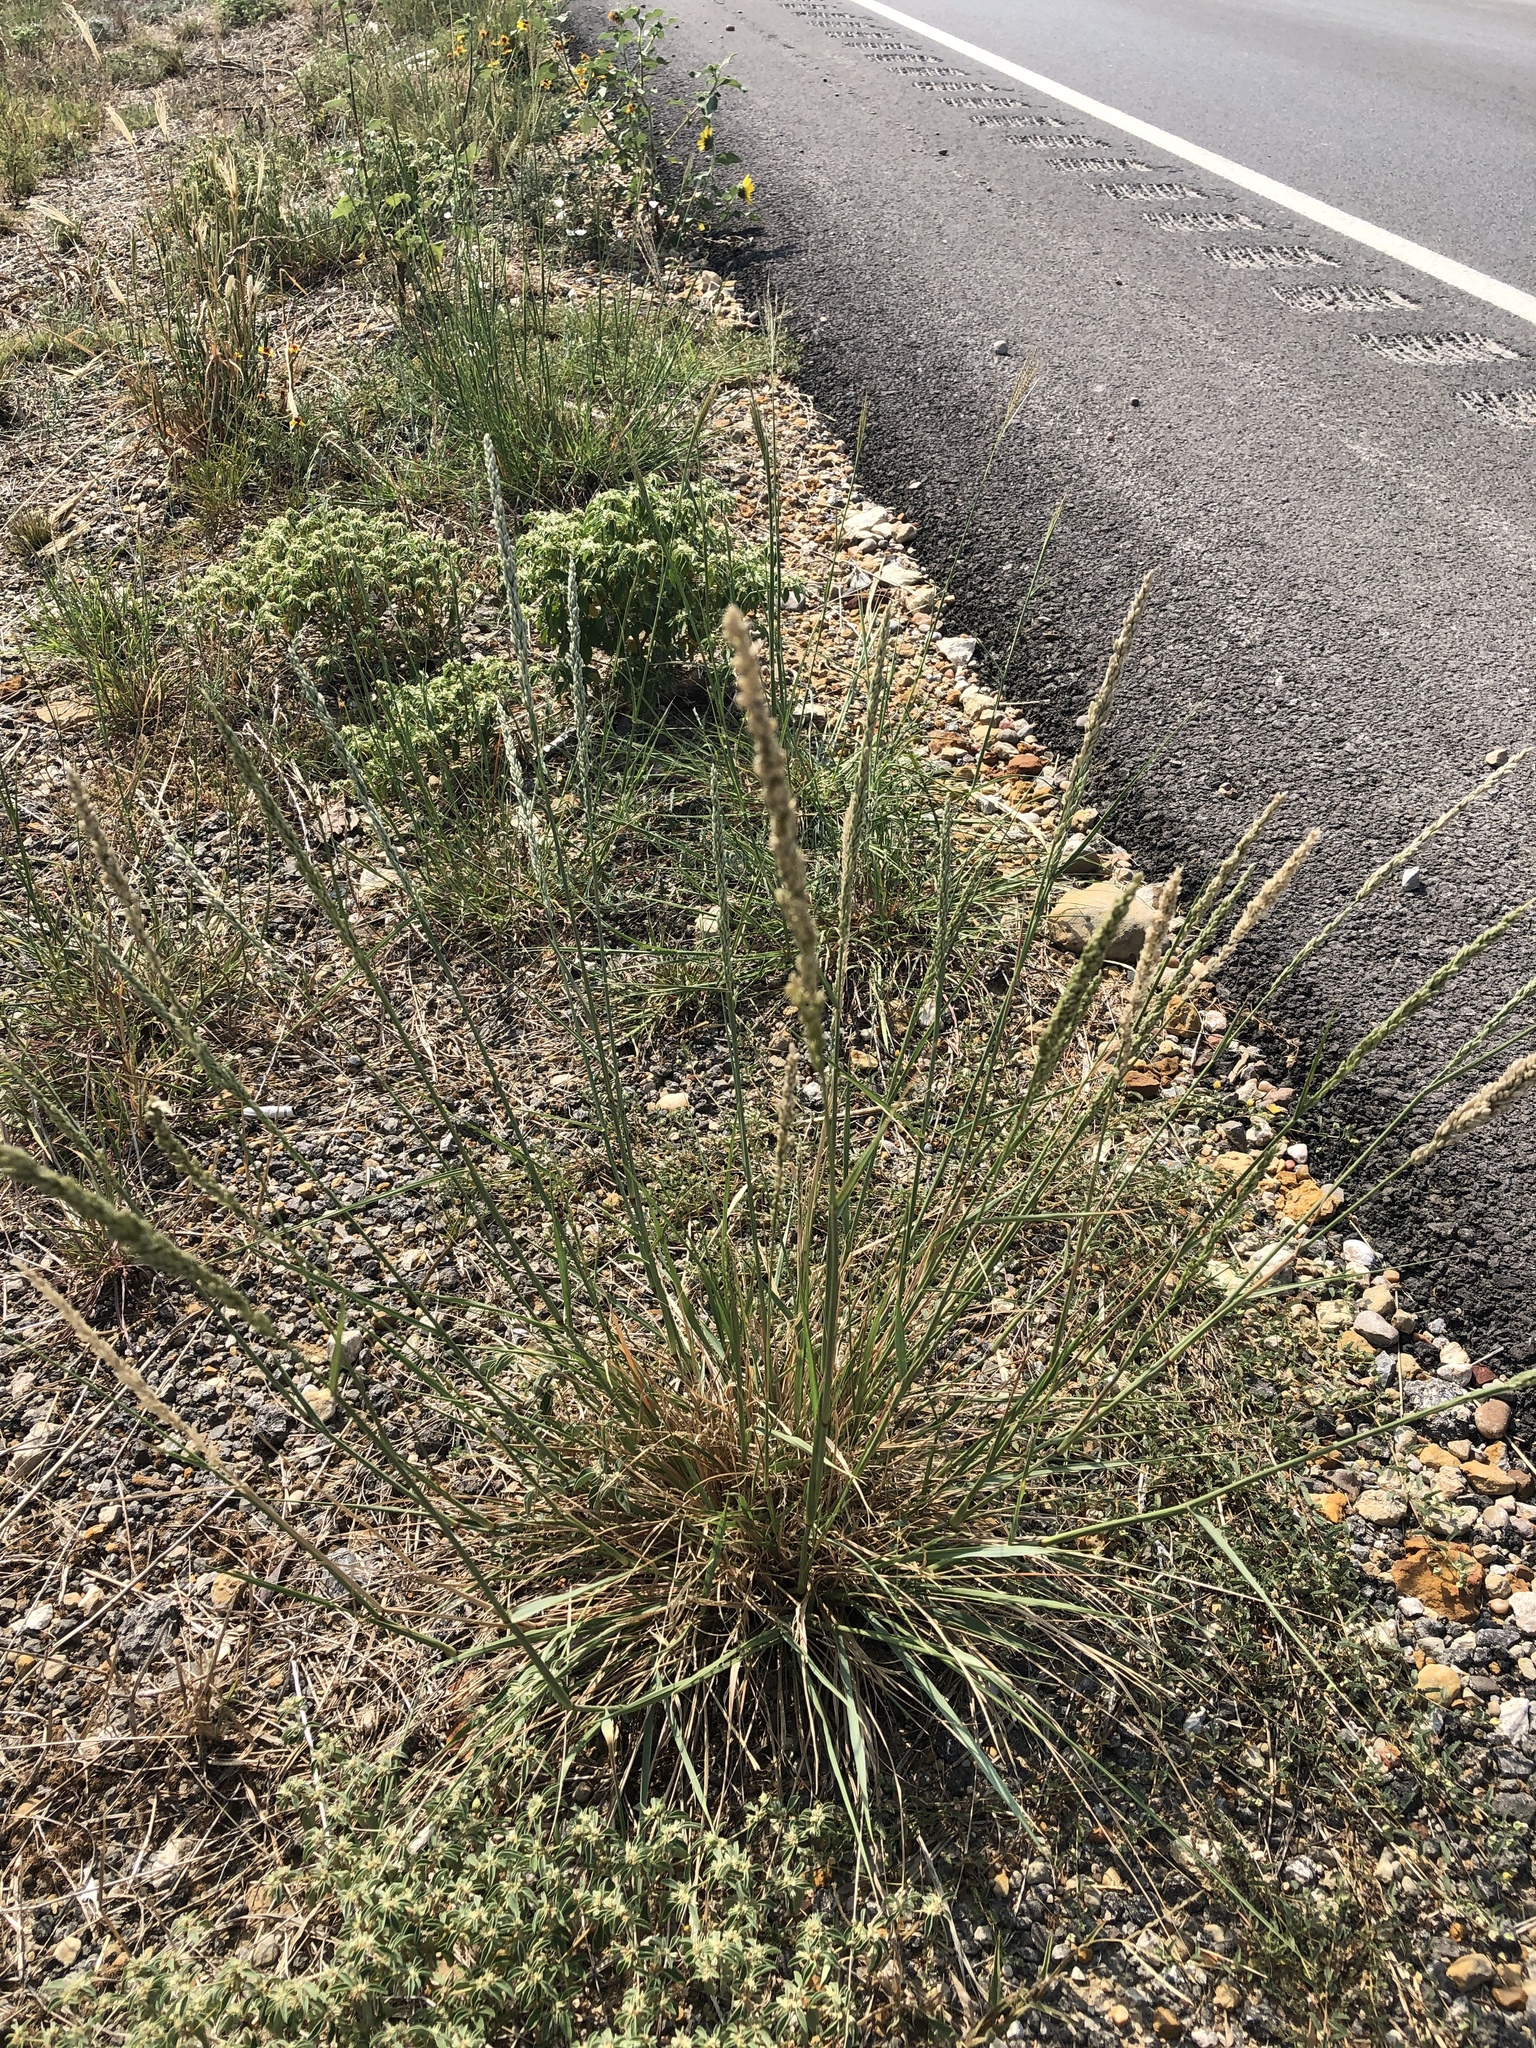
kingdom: Plantae
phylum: Tracheophyta
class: Liliopsida
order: Poales
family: Poaceae
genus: Tridens
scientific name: Tridens albescens
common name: White tridens
